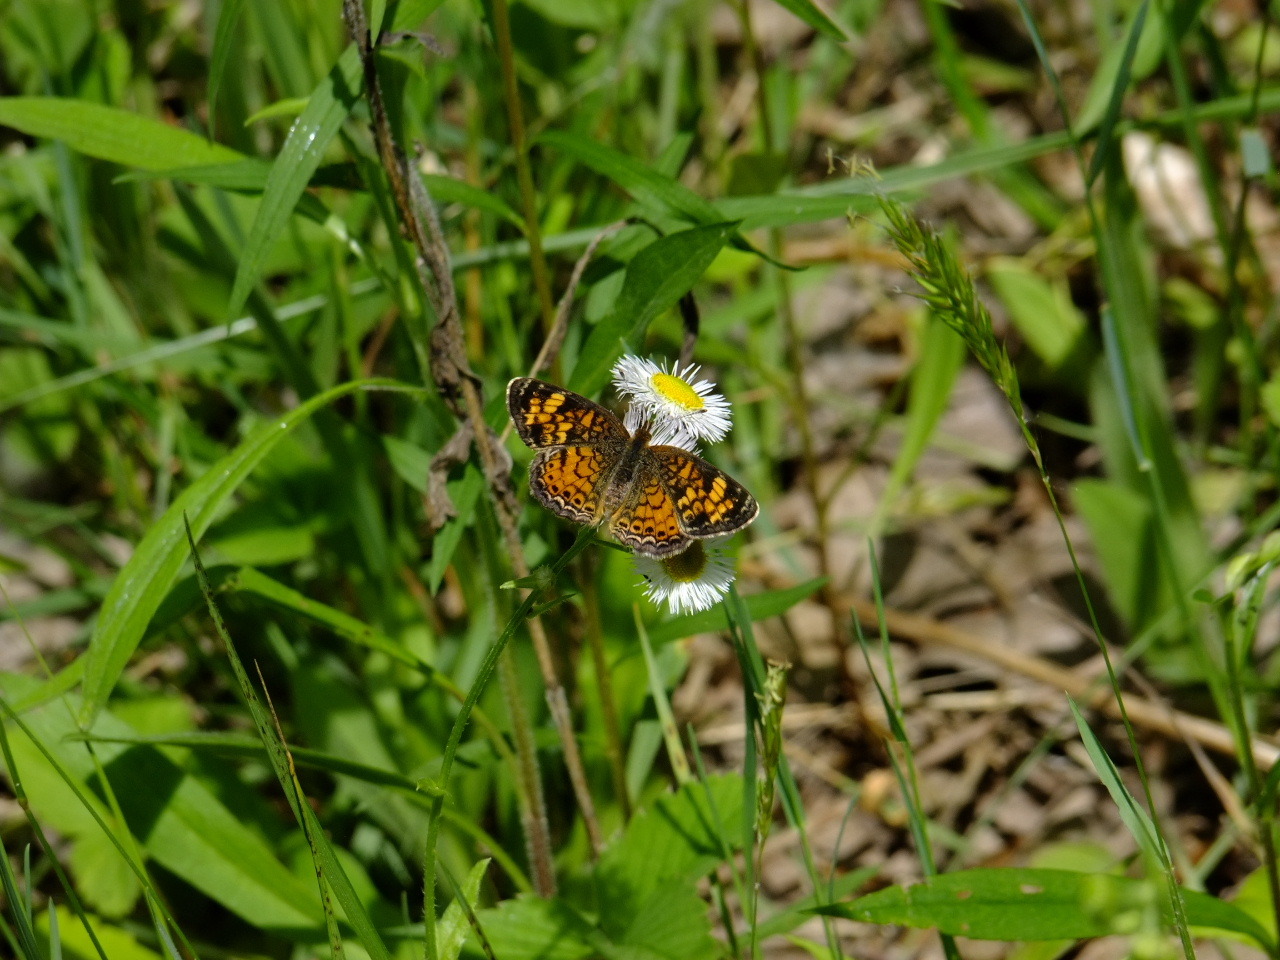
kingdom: Animalia
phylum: Arthropoda
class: Insecta
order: Lepidoptera
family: Nymphalidae
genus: Phyciodes
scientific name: Phyciodes tharos
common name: Pearl crescent
